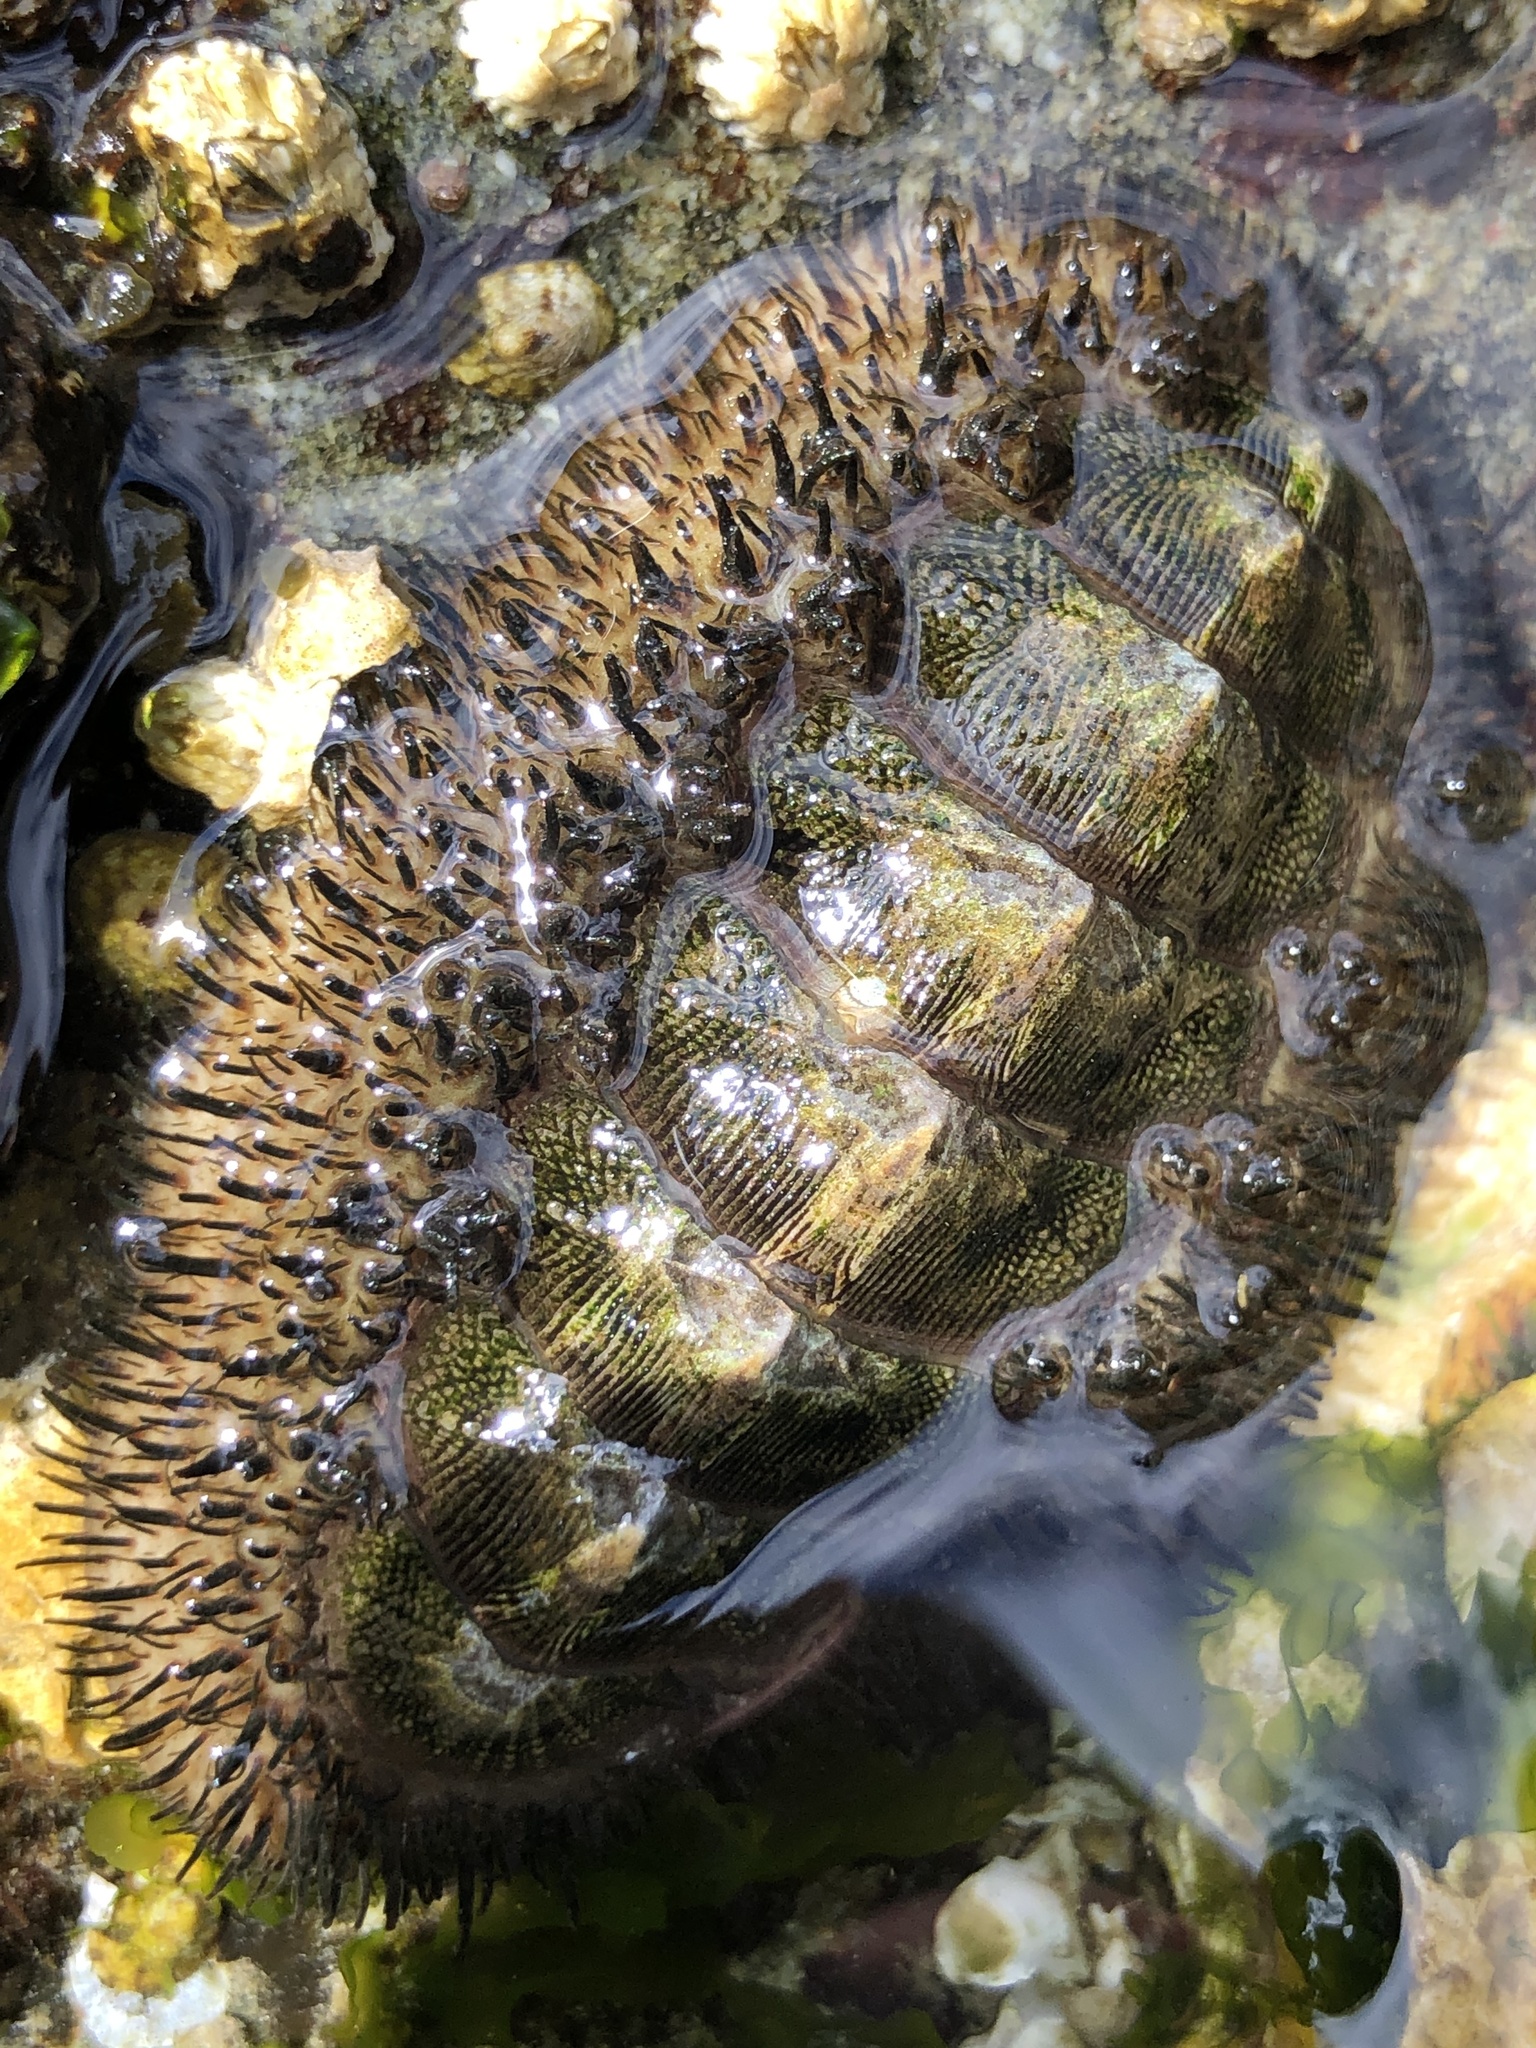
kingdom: Animalia
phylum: Mollusca
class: Polyplacophora
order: Chitonida
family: Mopaliidae
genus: Mopalia
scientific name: Mopalia muscosa
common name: Mossy chiton
